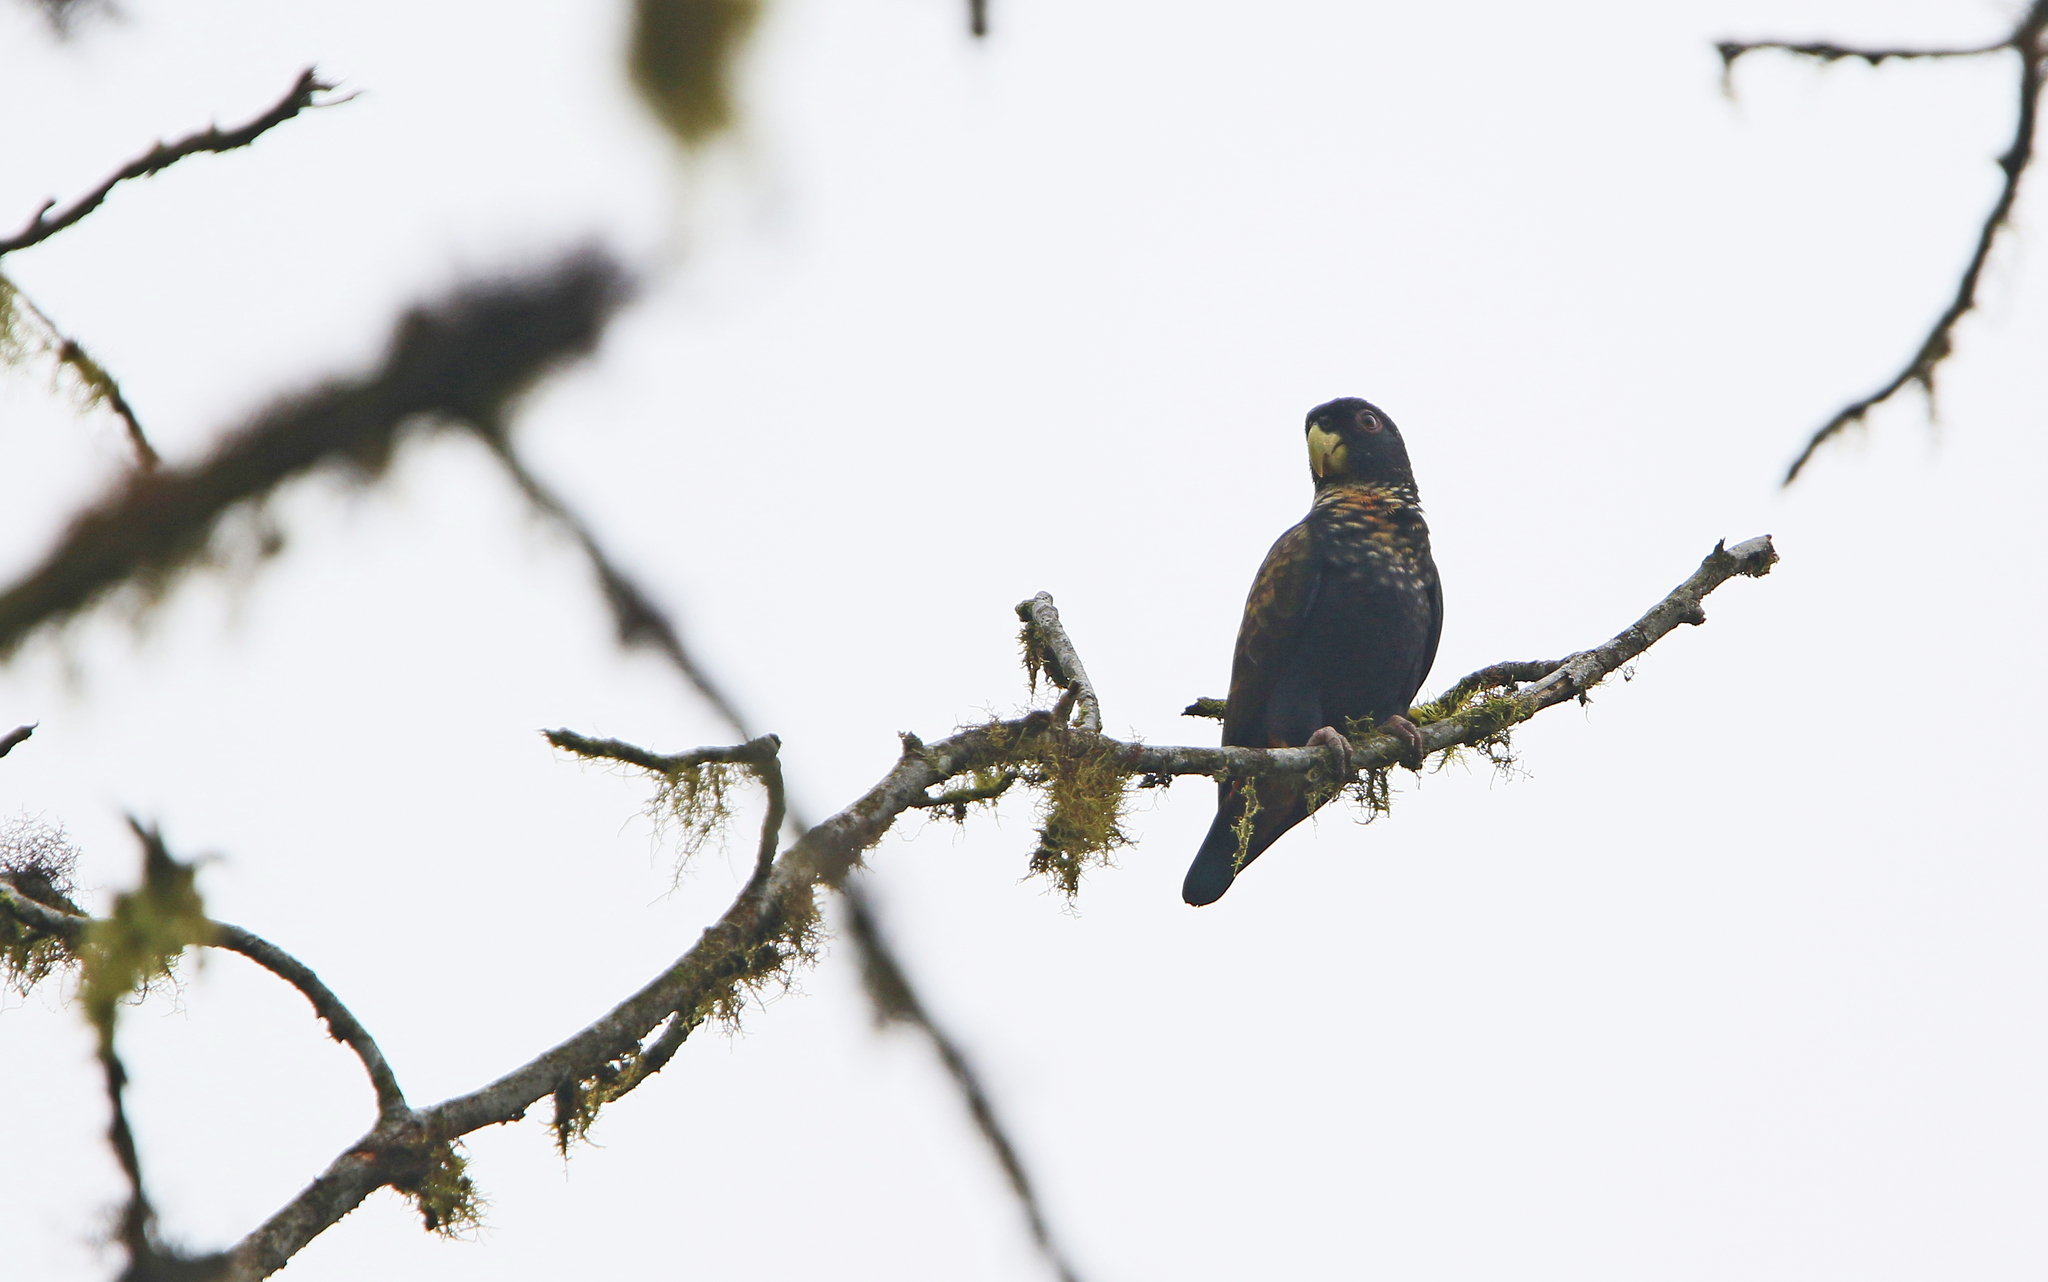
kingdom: Animalia
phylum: Chordata
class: Aves
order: Psittaciformes
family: Psittacidae
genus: Pionus
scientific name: Pionus chalcopterus
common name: Bronze-winged parrot
